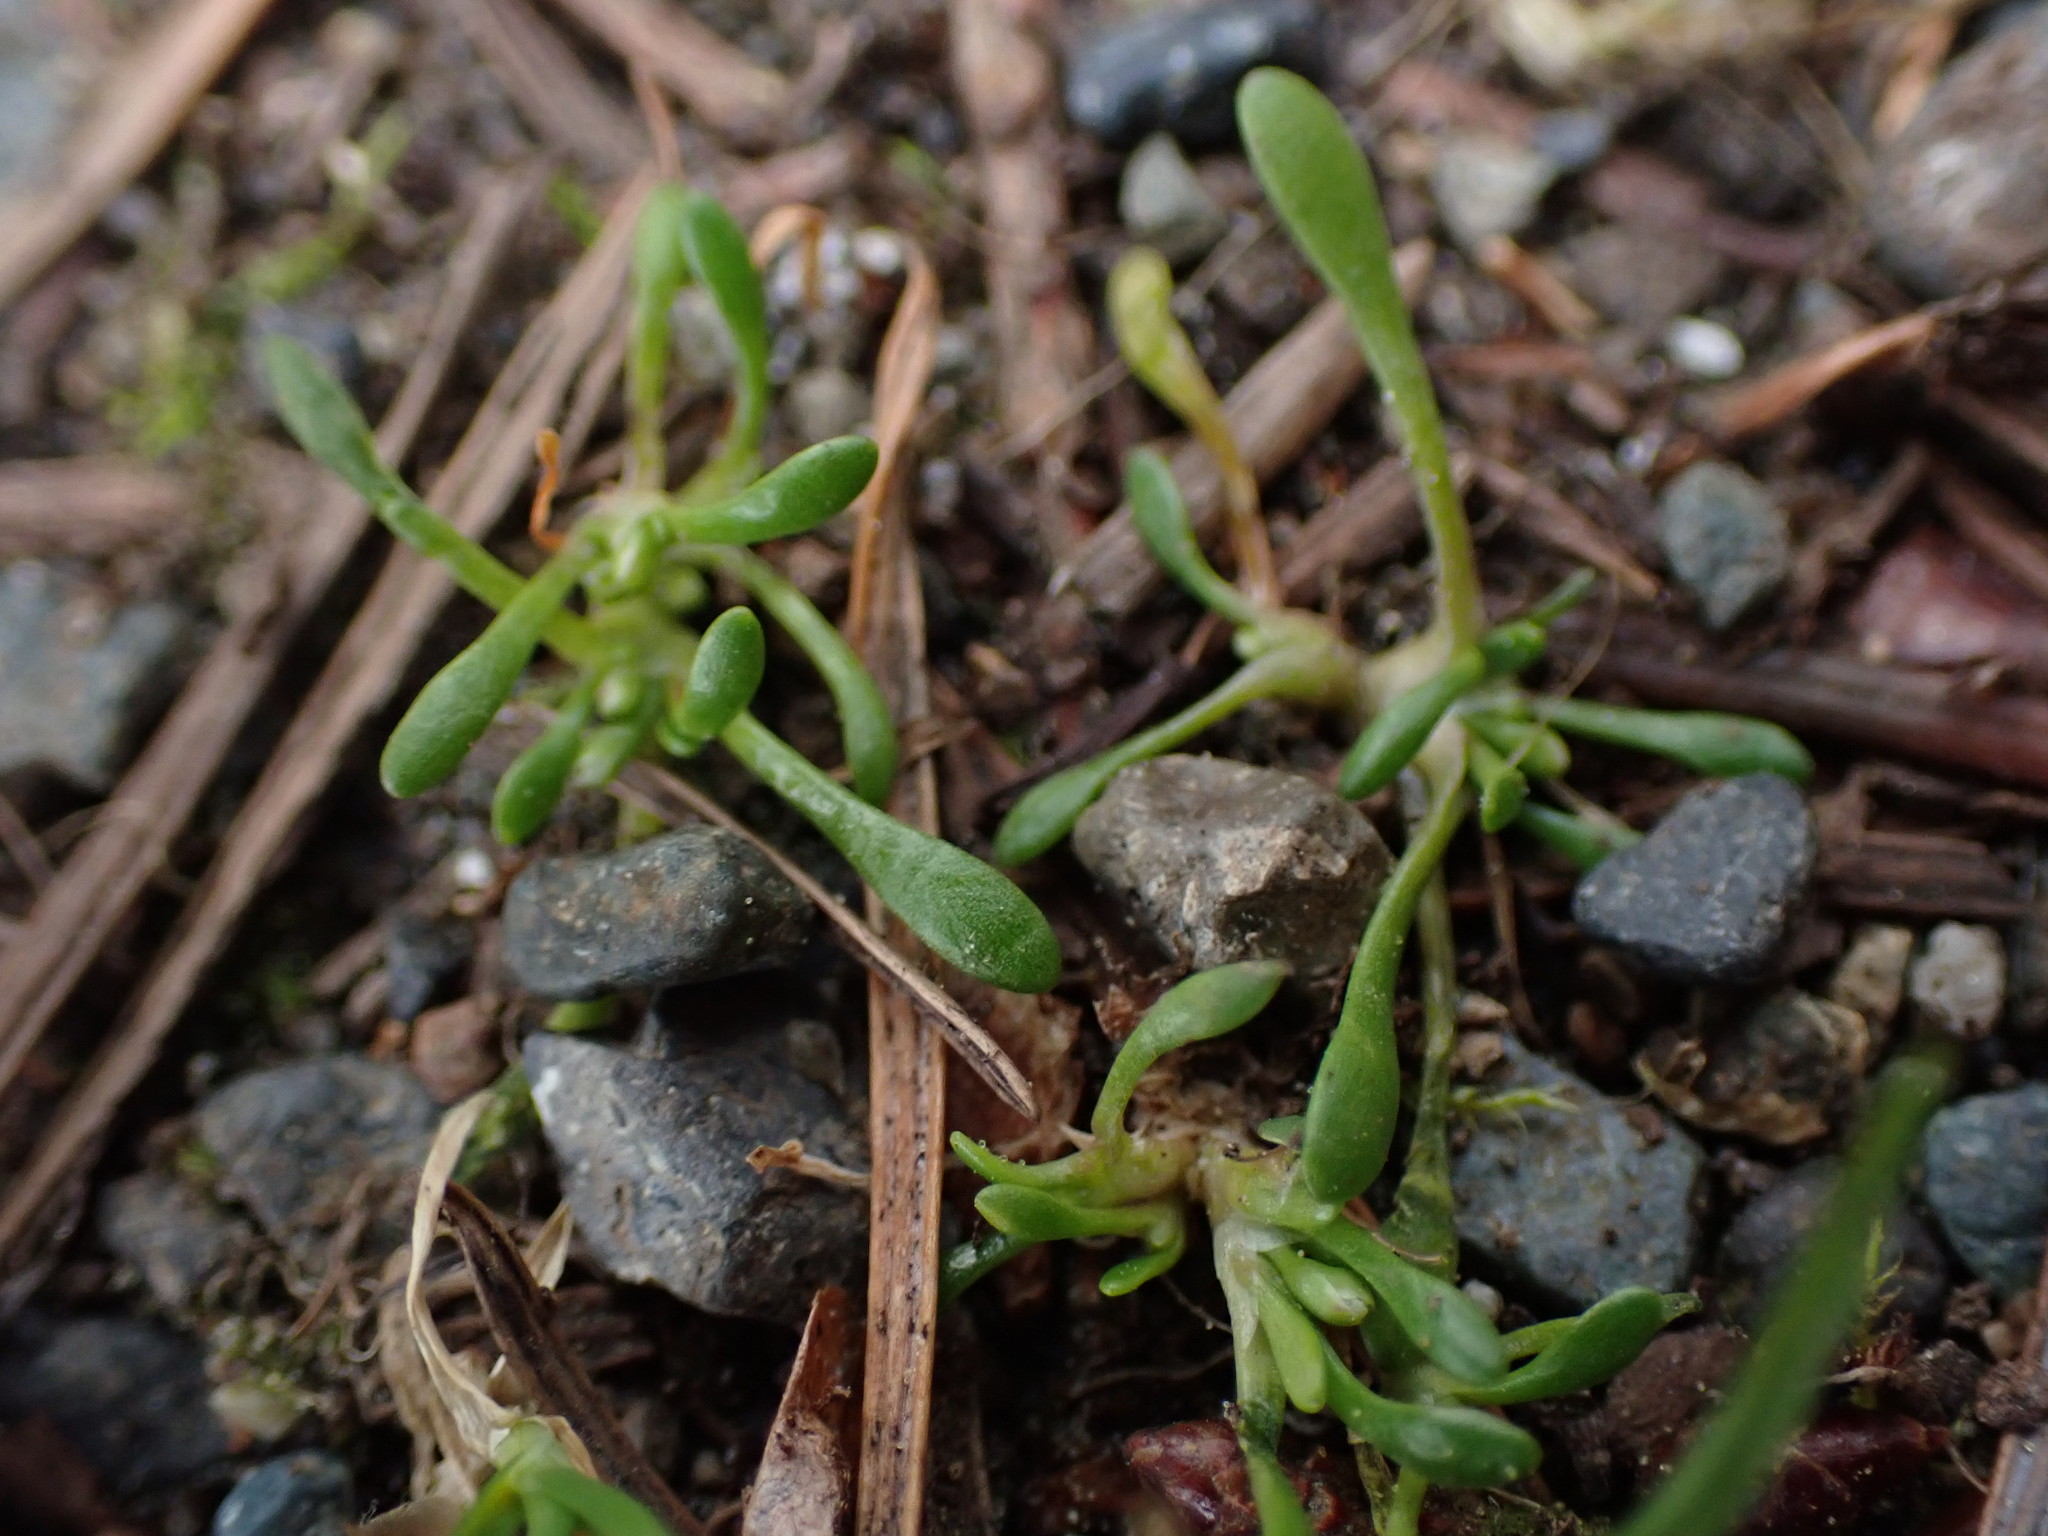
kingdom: Plantae
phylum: Tracheophyta
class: Magnoliopsida
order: Caryophyllales
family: Montiaceae
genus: Montia
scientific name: Montia howellii
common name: Howell's miner's-lettuce
